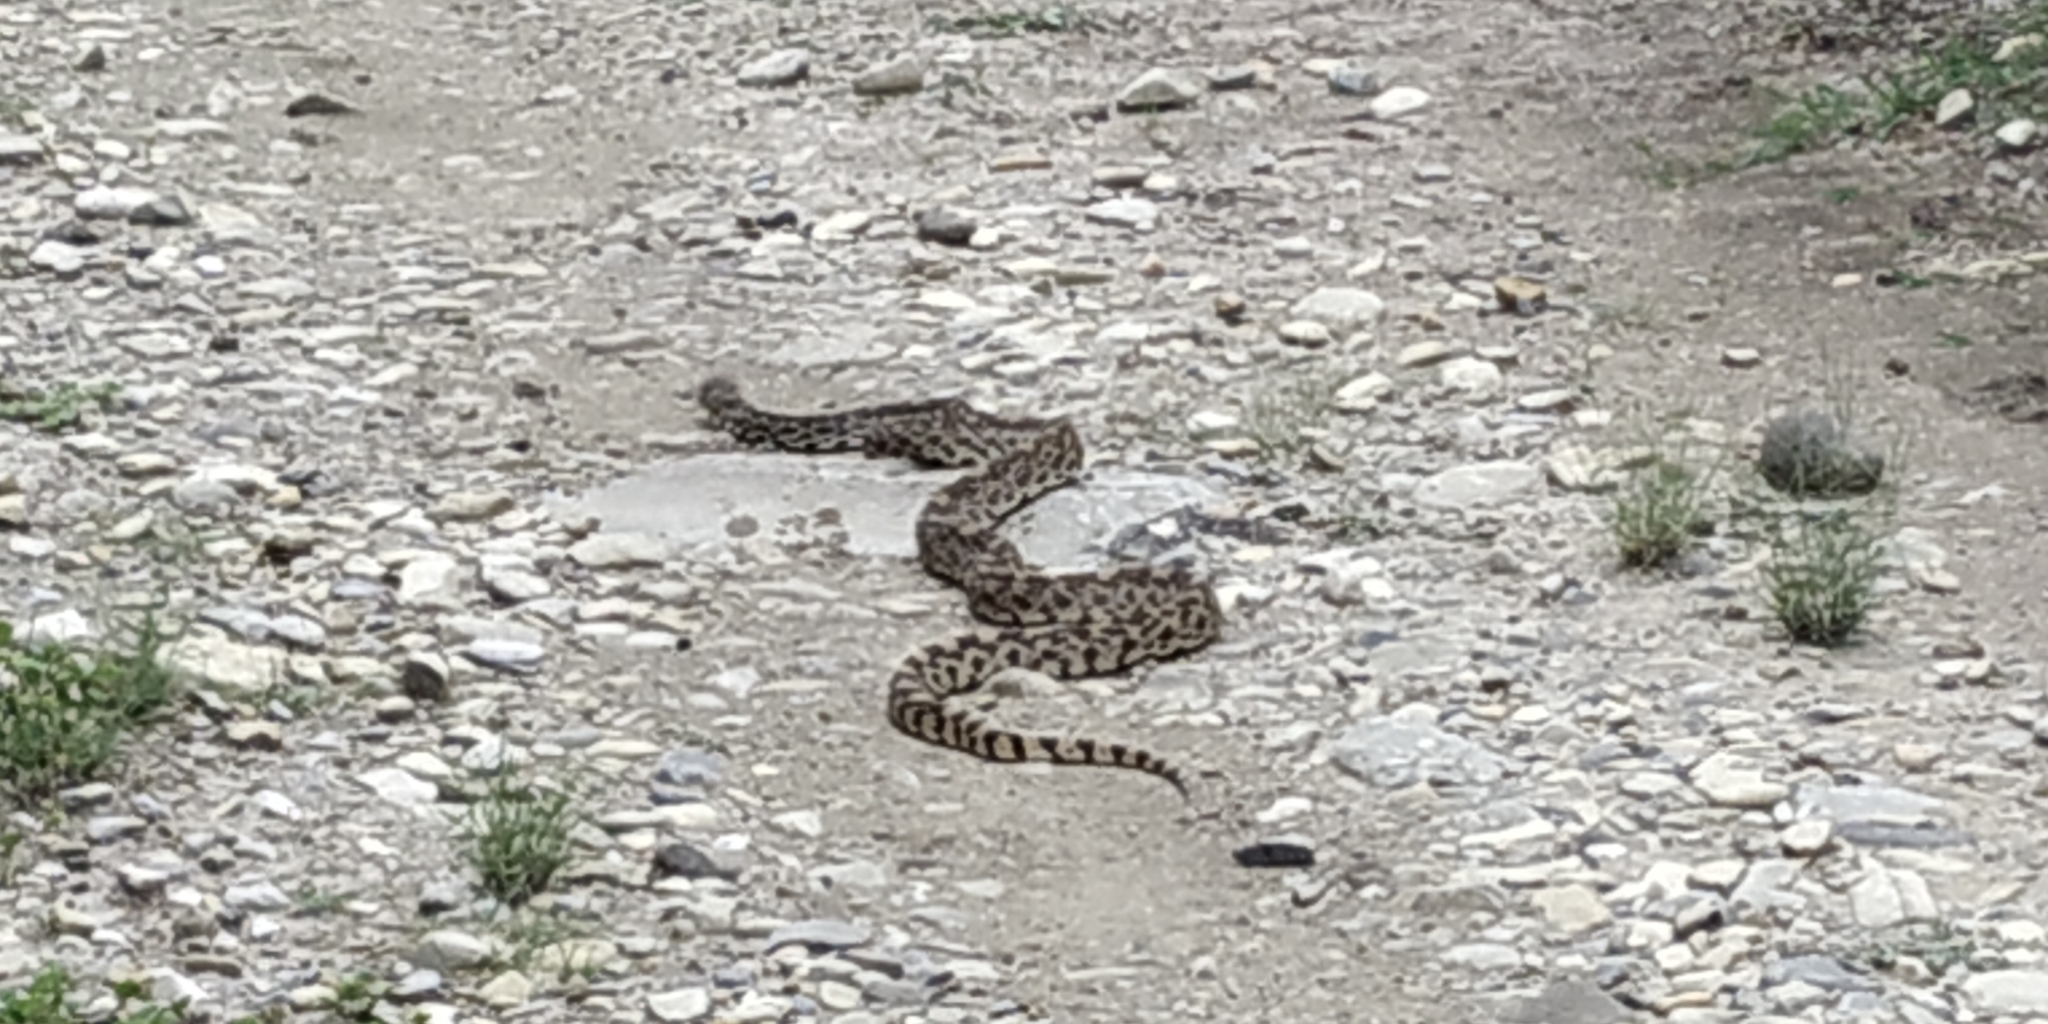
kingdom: Animalia
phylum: Chordata
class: Squamata
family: Colubridae
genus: Pituophis
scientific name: Pituophis catenifer
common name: Gopher snake
